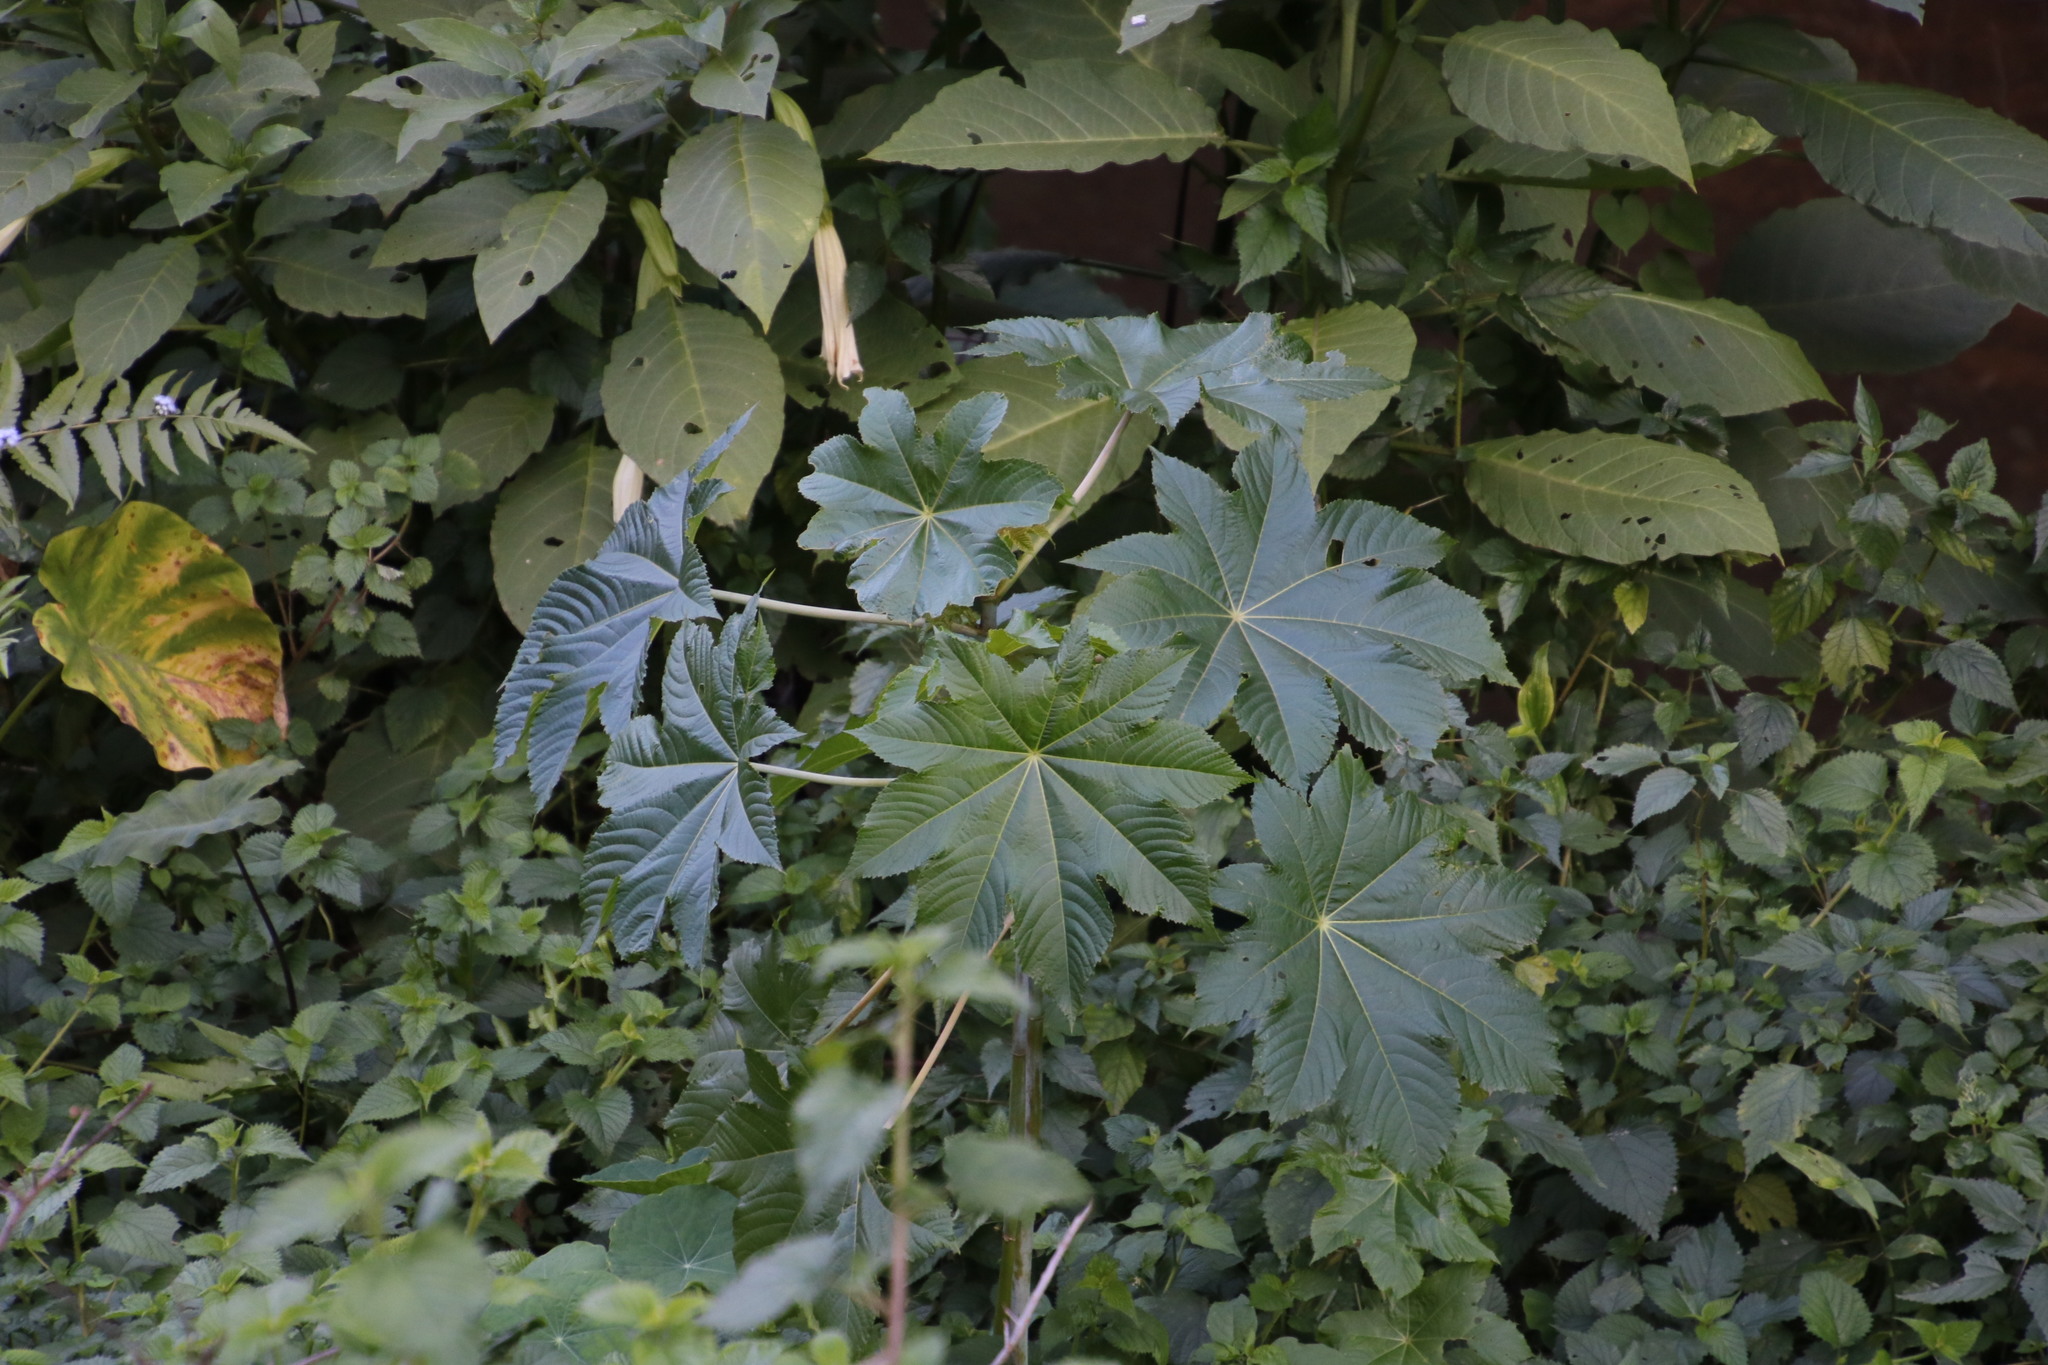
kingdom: Plantae
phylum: Tracheophyta
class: Magnoliopsida
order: Malpighiales
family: Euphorbiaceae
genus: Ricinus
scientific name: Ricinus communis
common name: Castor-oil-plant
